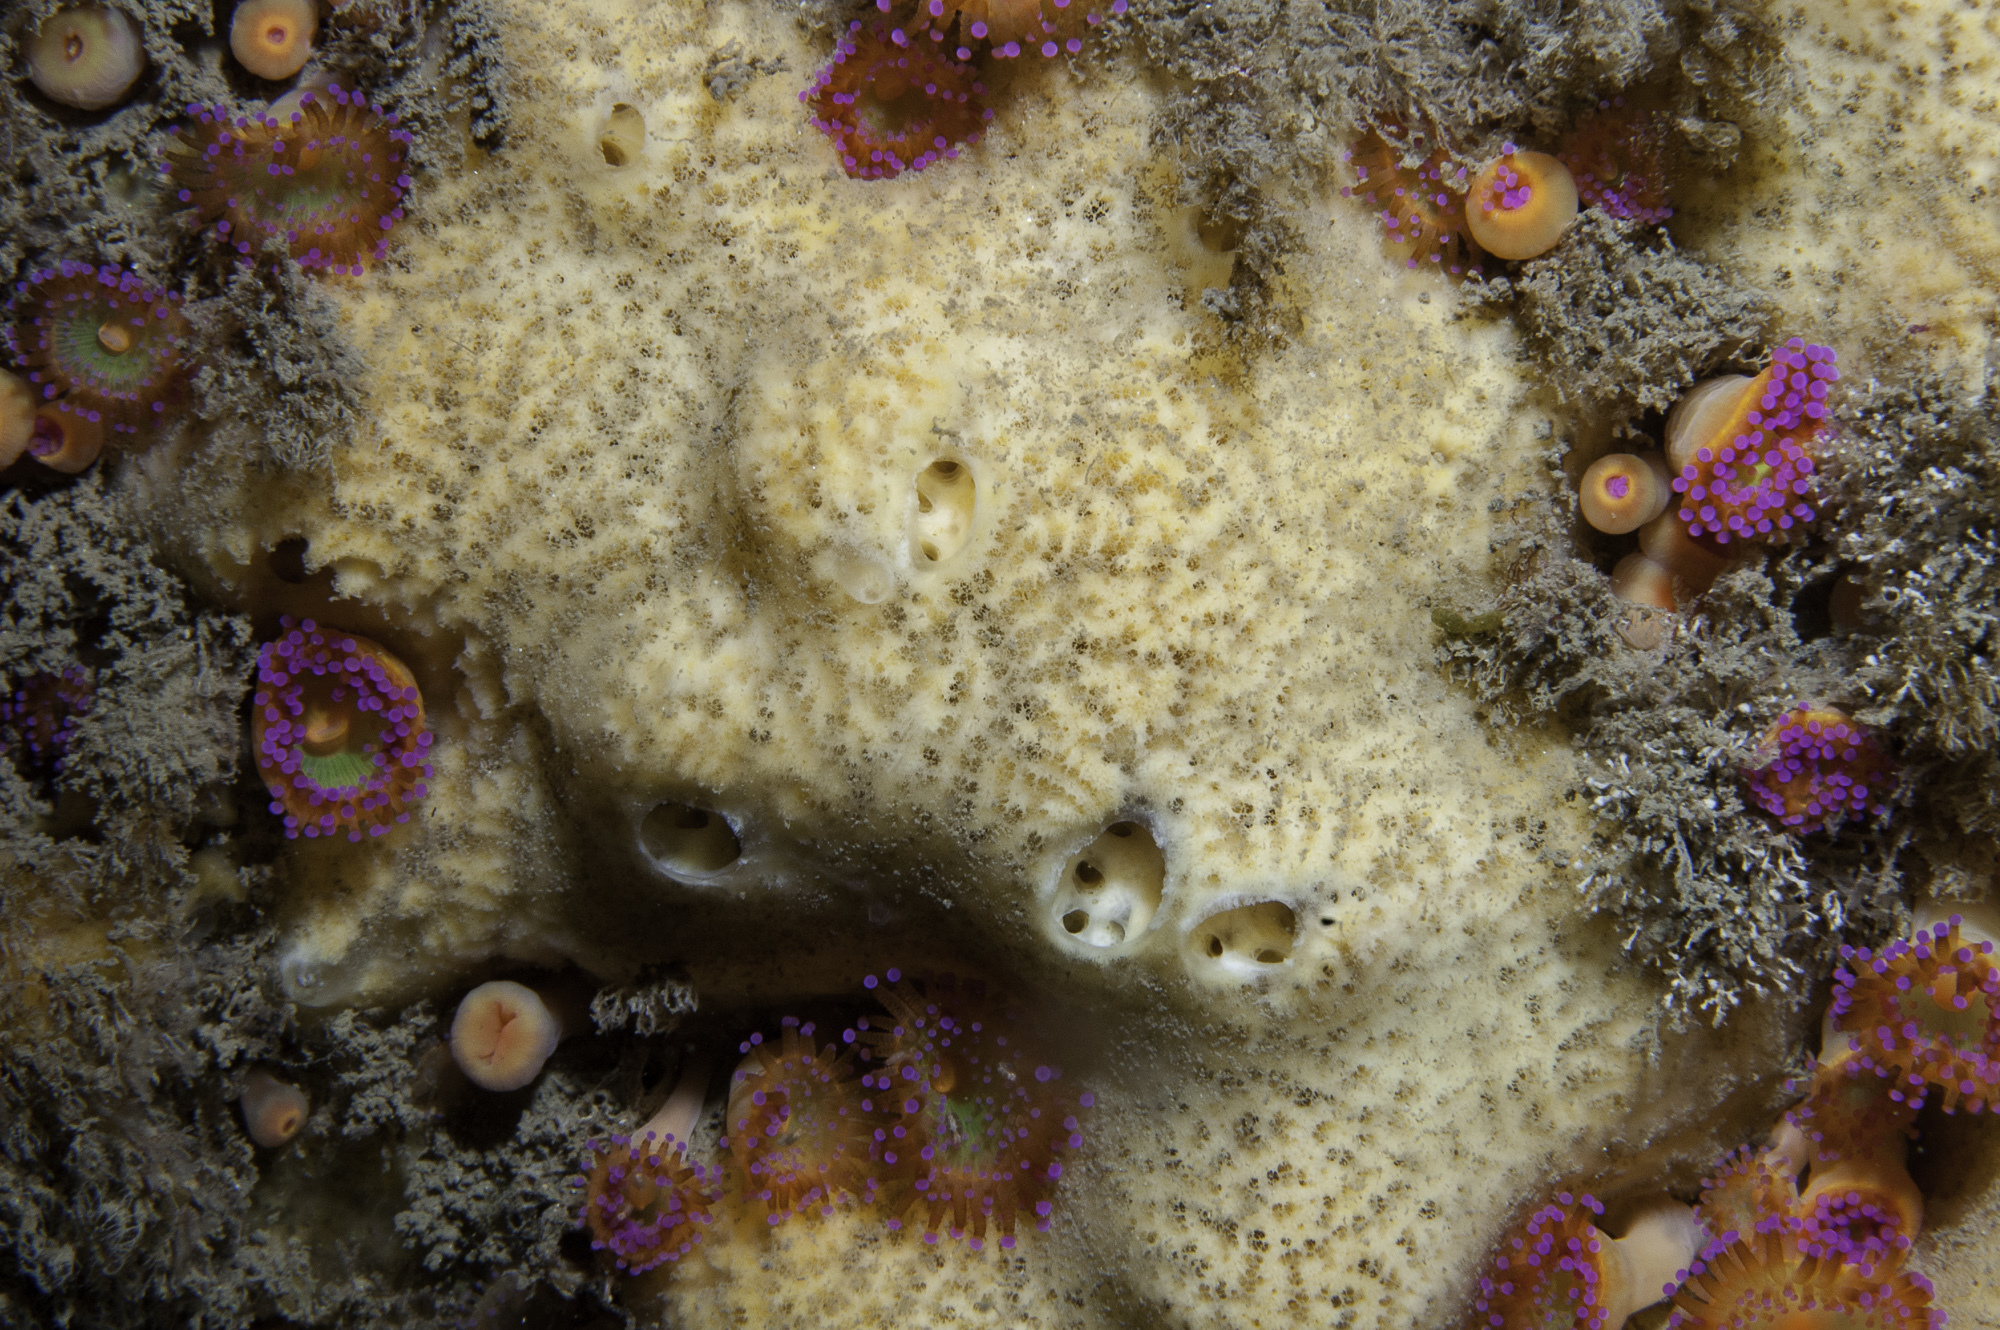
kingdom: Animalia
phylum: Porifera
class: Demospongiae
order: Poecilosclerida
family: Myxillidae
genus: Myxilla
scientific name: Myxilla incrustans
